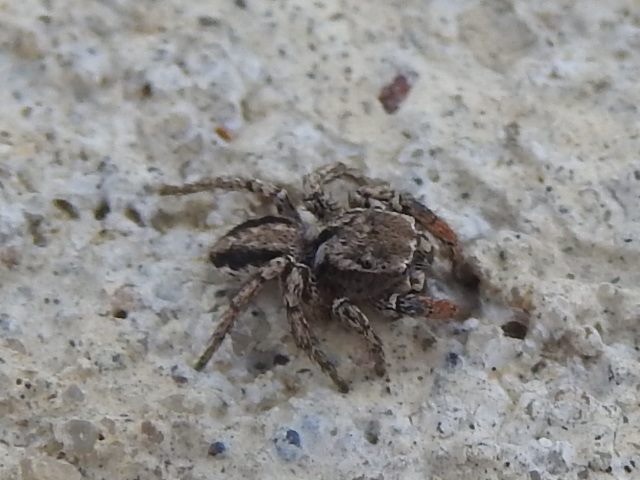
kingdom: Animalia
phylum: Arthropoda
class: Arachnida
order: Araneae
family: Salticidae
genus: Habronattus
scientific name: Habronattus texanus
